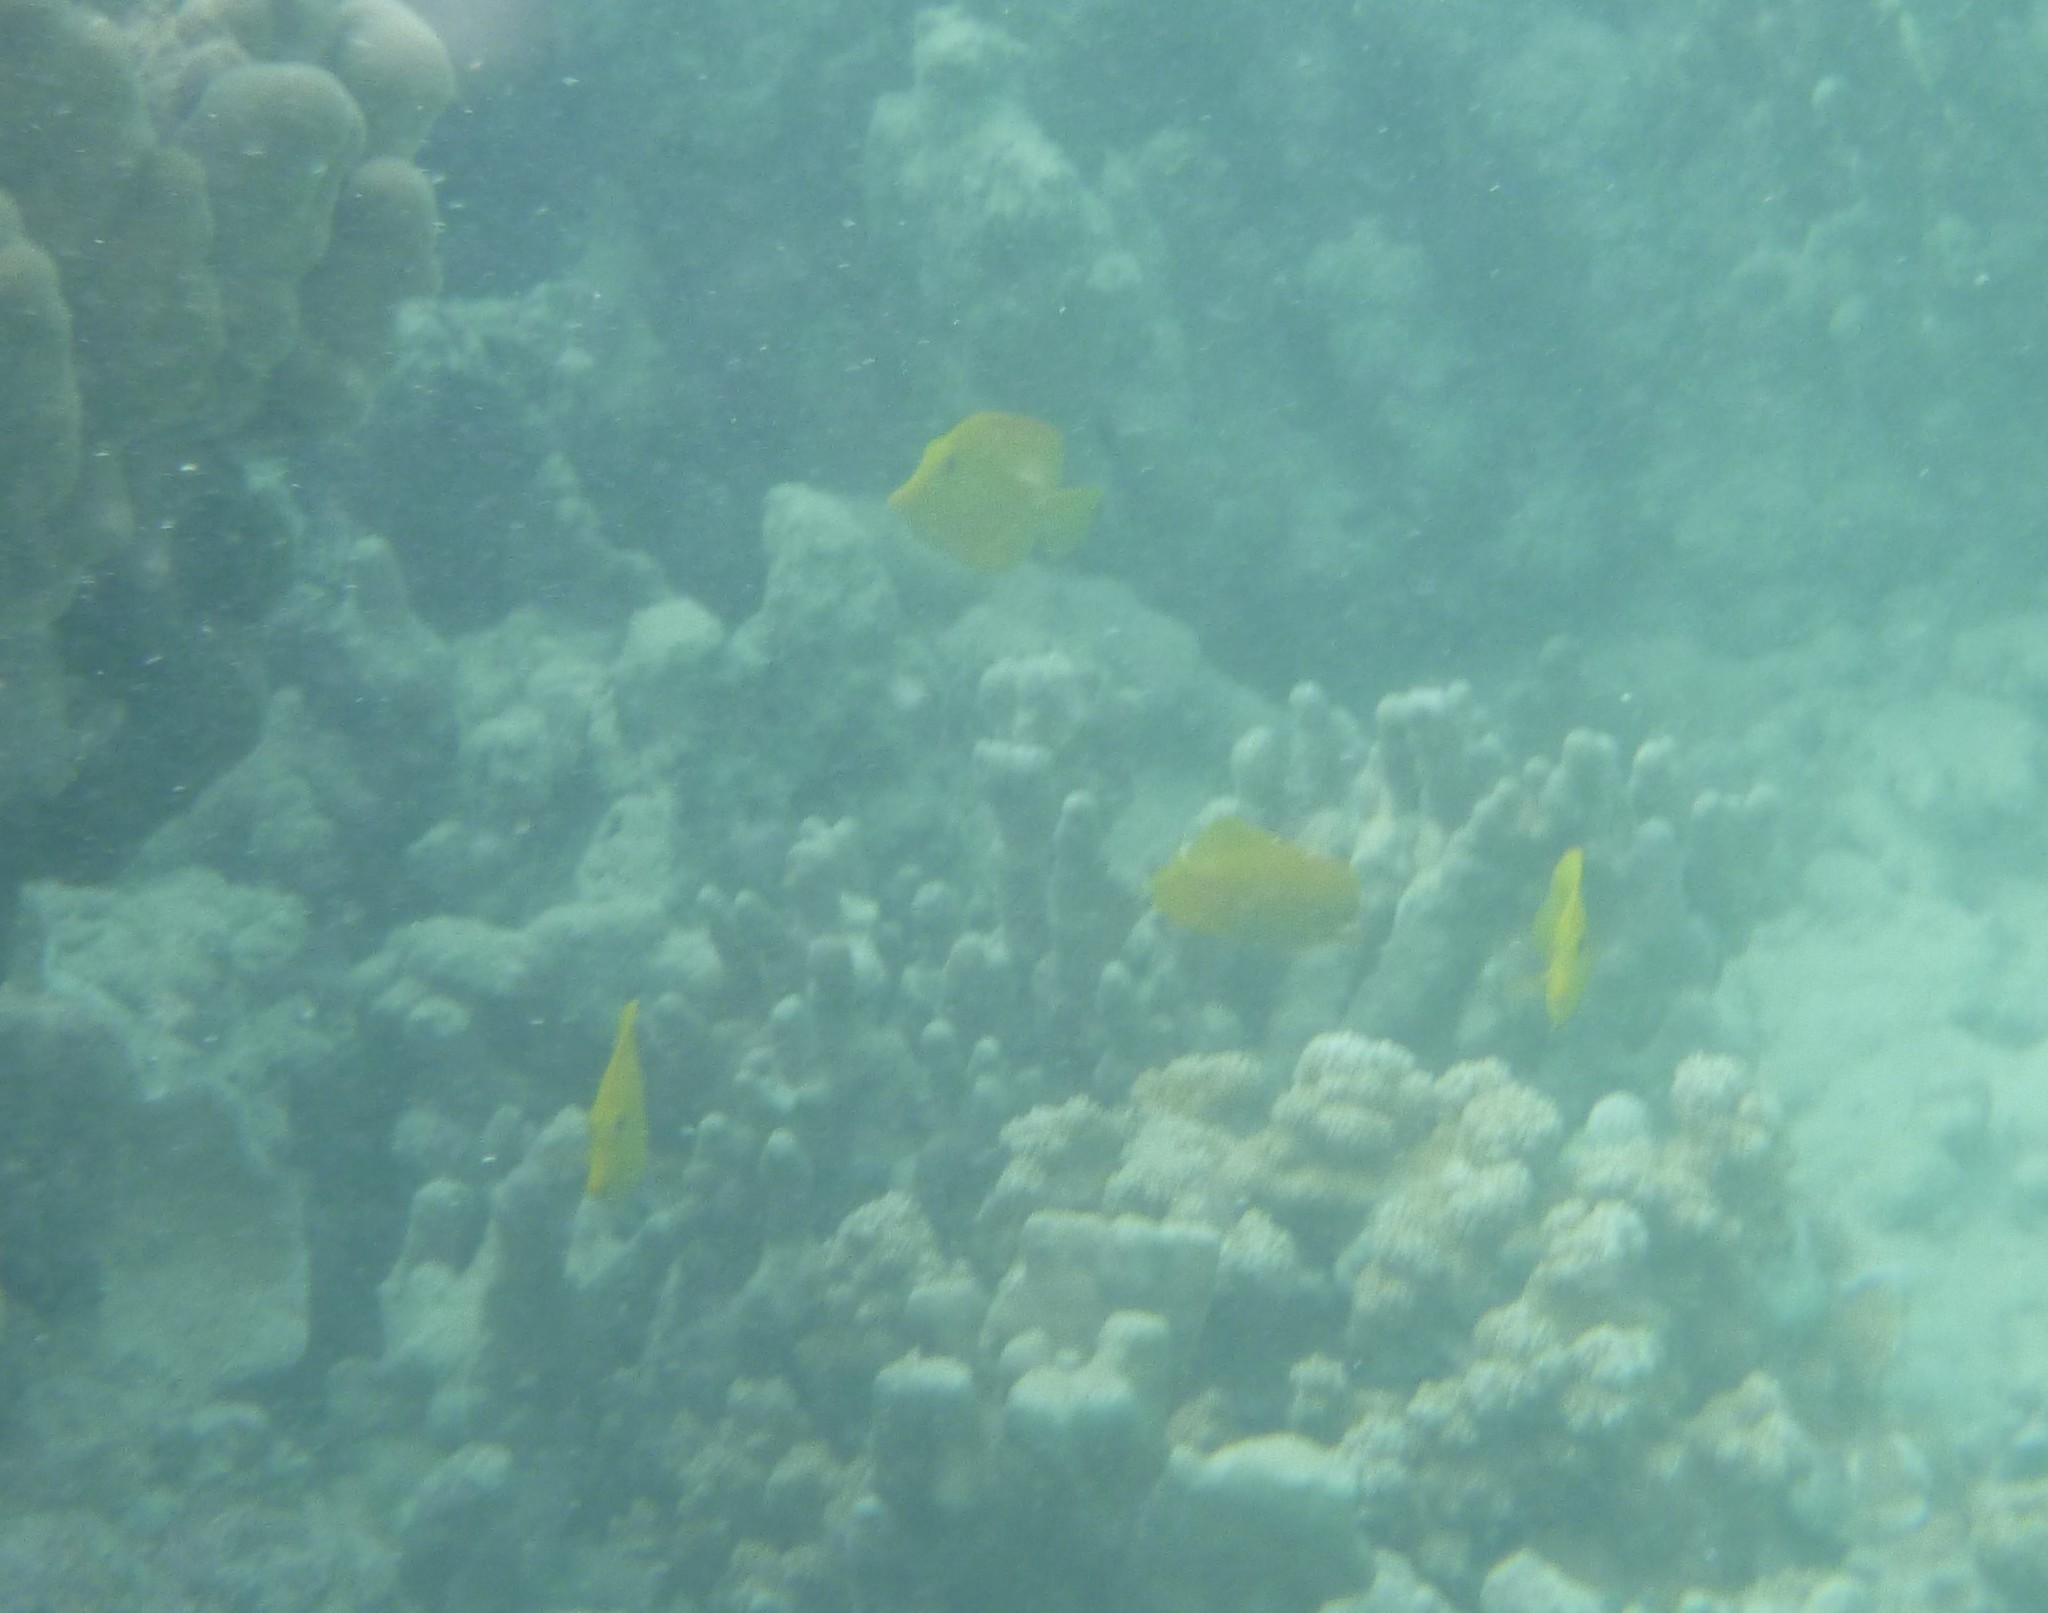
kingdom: Animalia
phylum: Chordata
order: Perciformes
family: Acanthuridae
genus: Zebrasoma
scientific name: Zebrasoma flavescens
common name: Yellow tang
